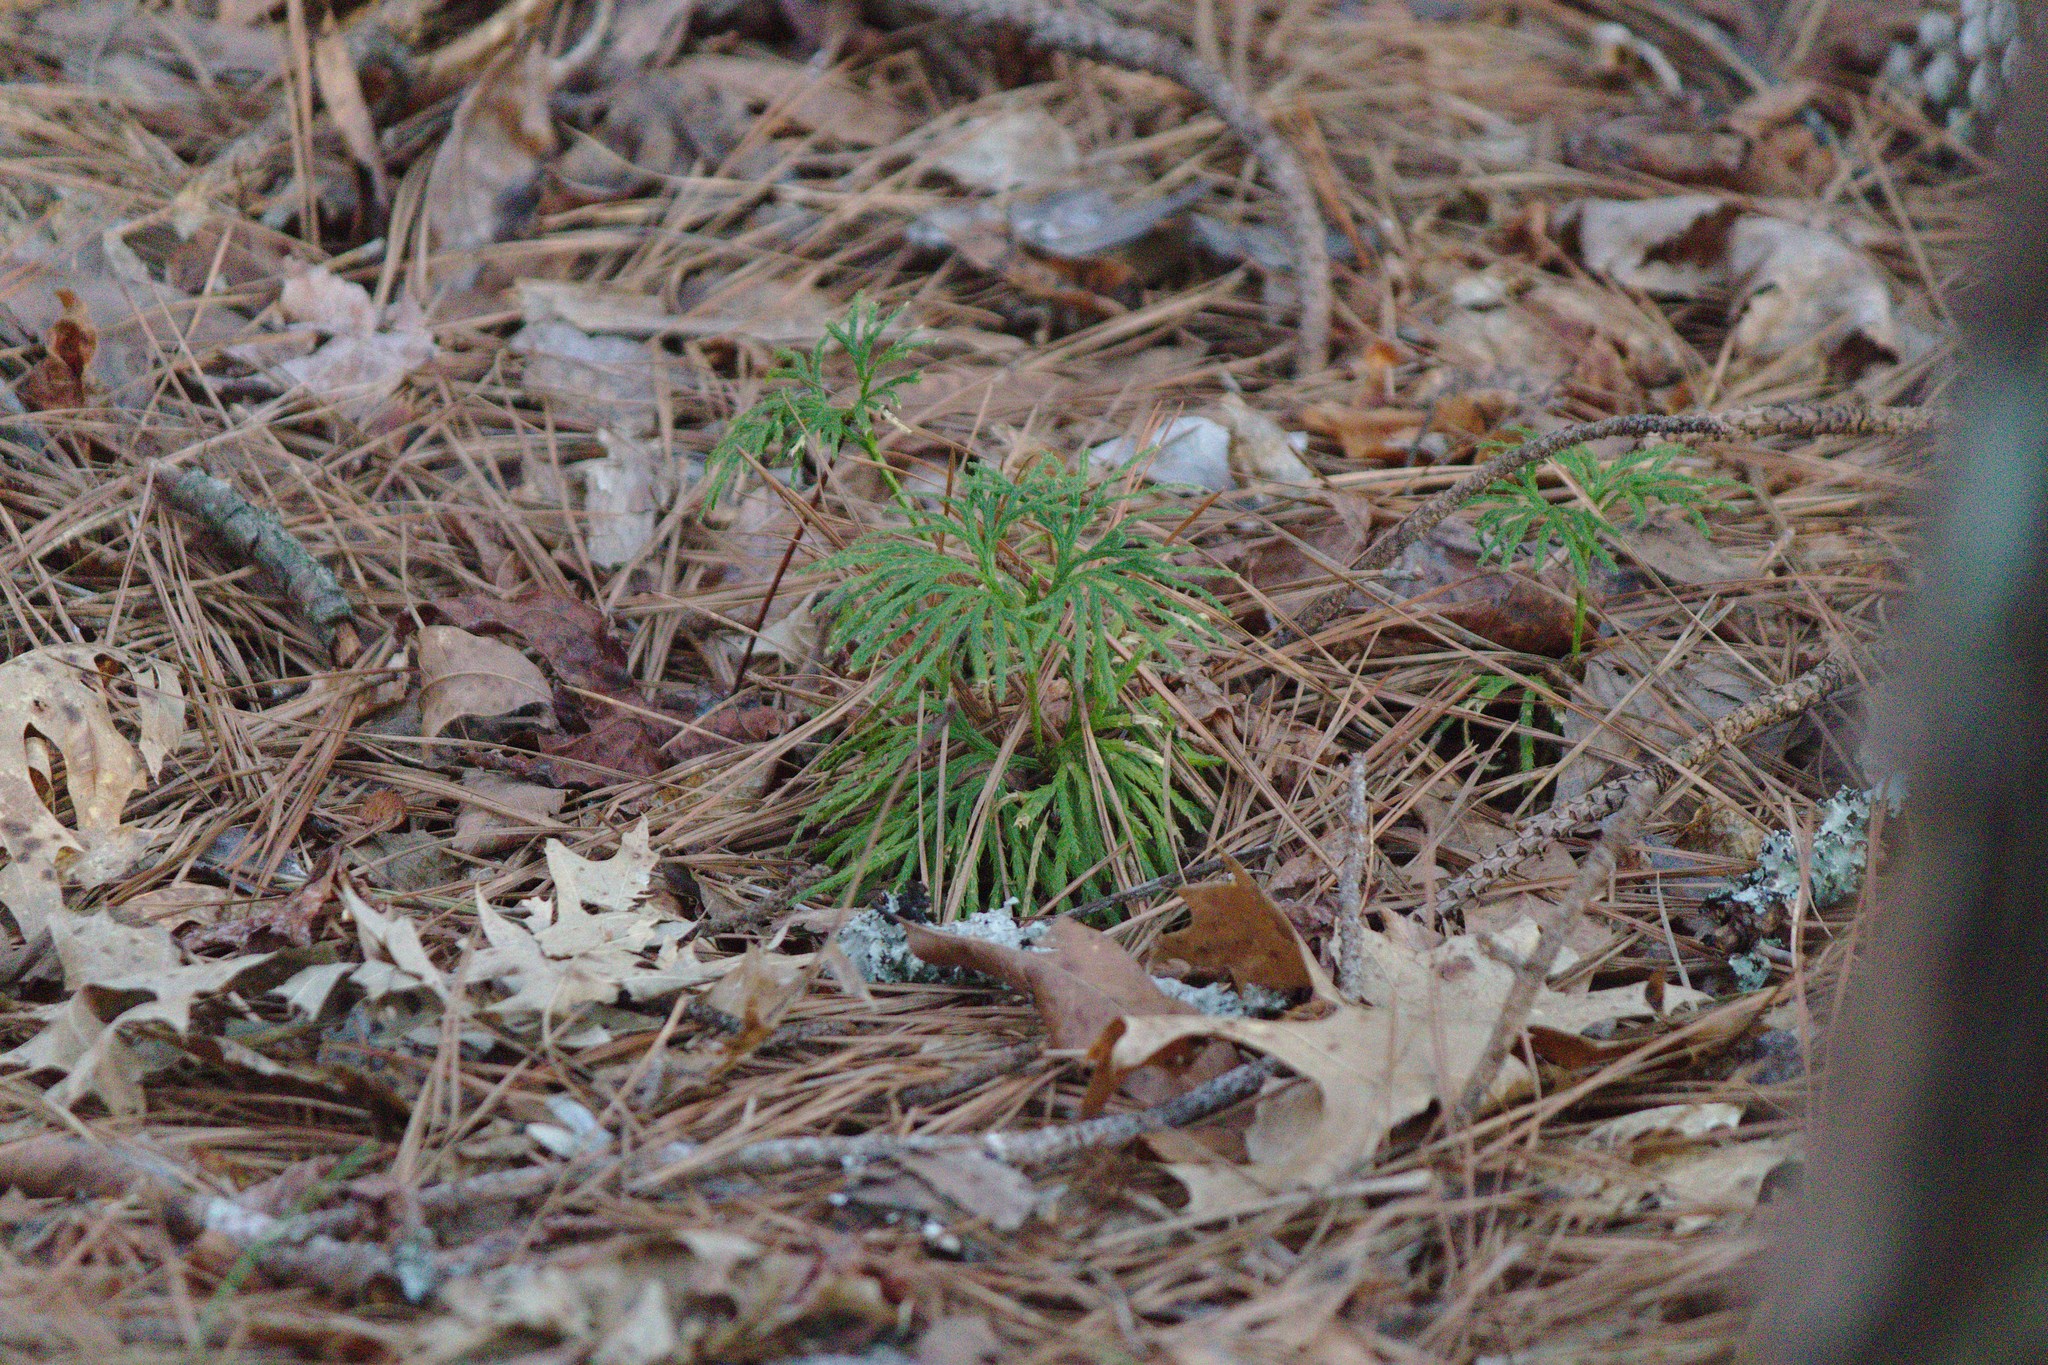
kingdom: Plantae
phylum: Tracheophyta
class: Lycopodiopsida
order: Lycopodiales
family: Lycopodiaceae
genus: Diphasiastrum
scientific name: Diphasiastrum digitatum
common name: Southern running-pine
